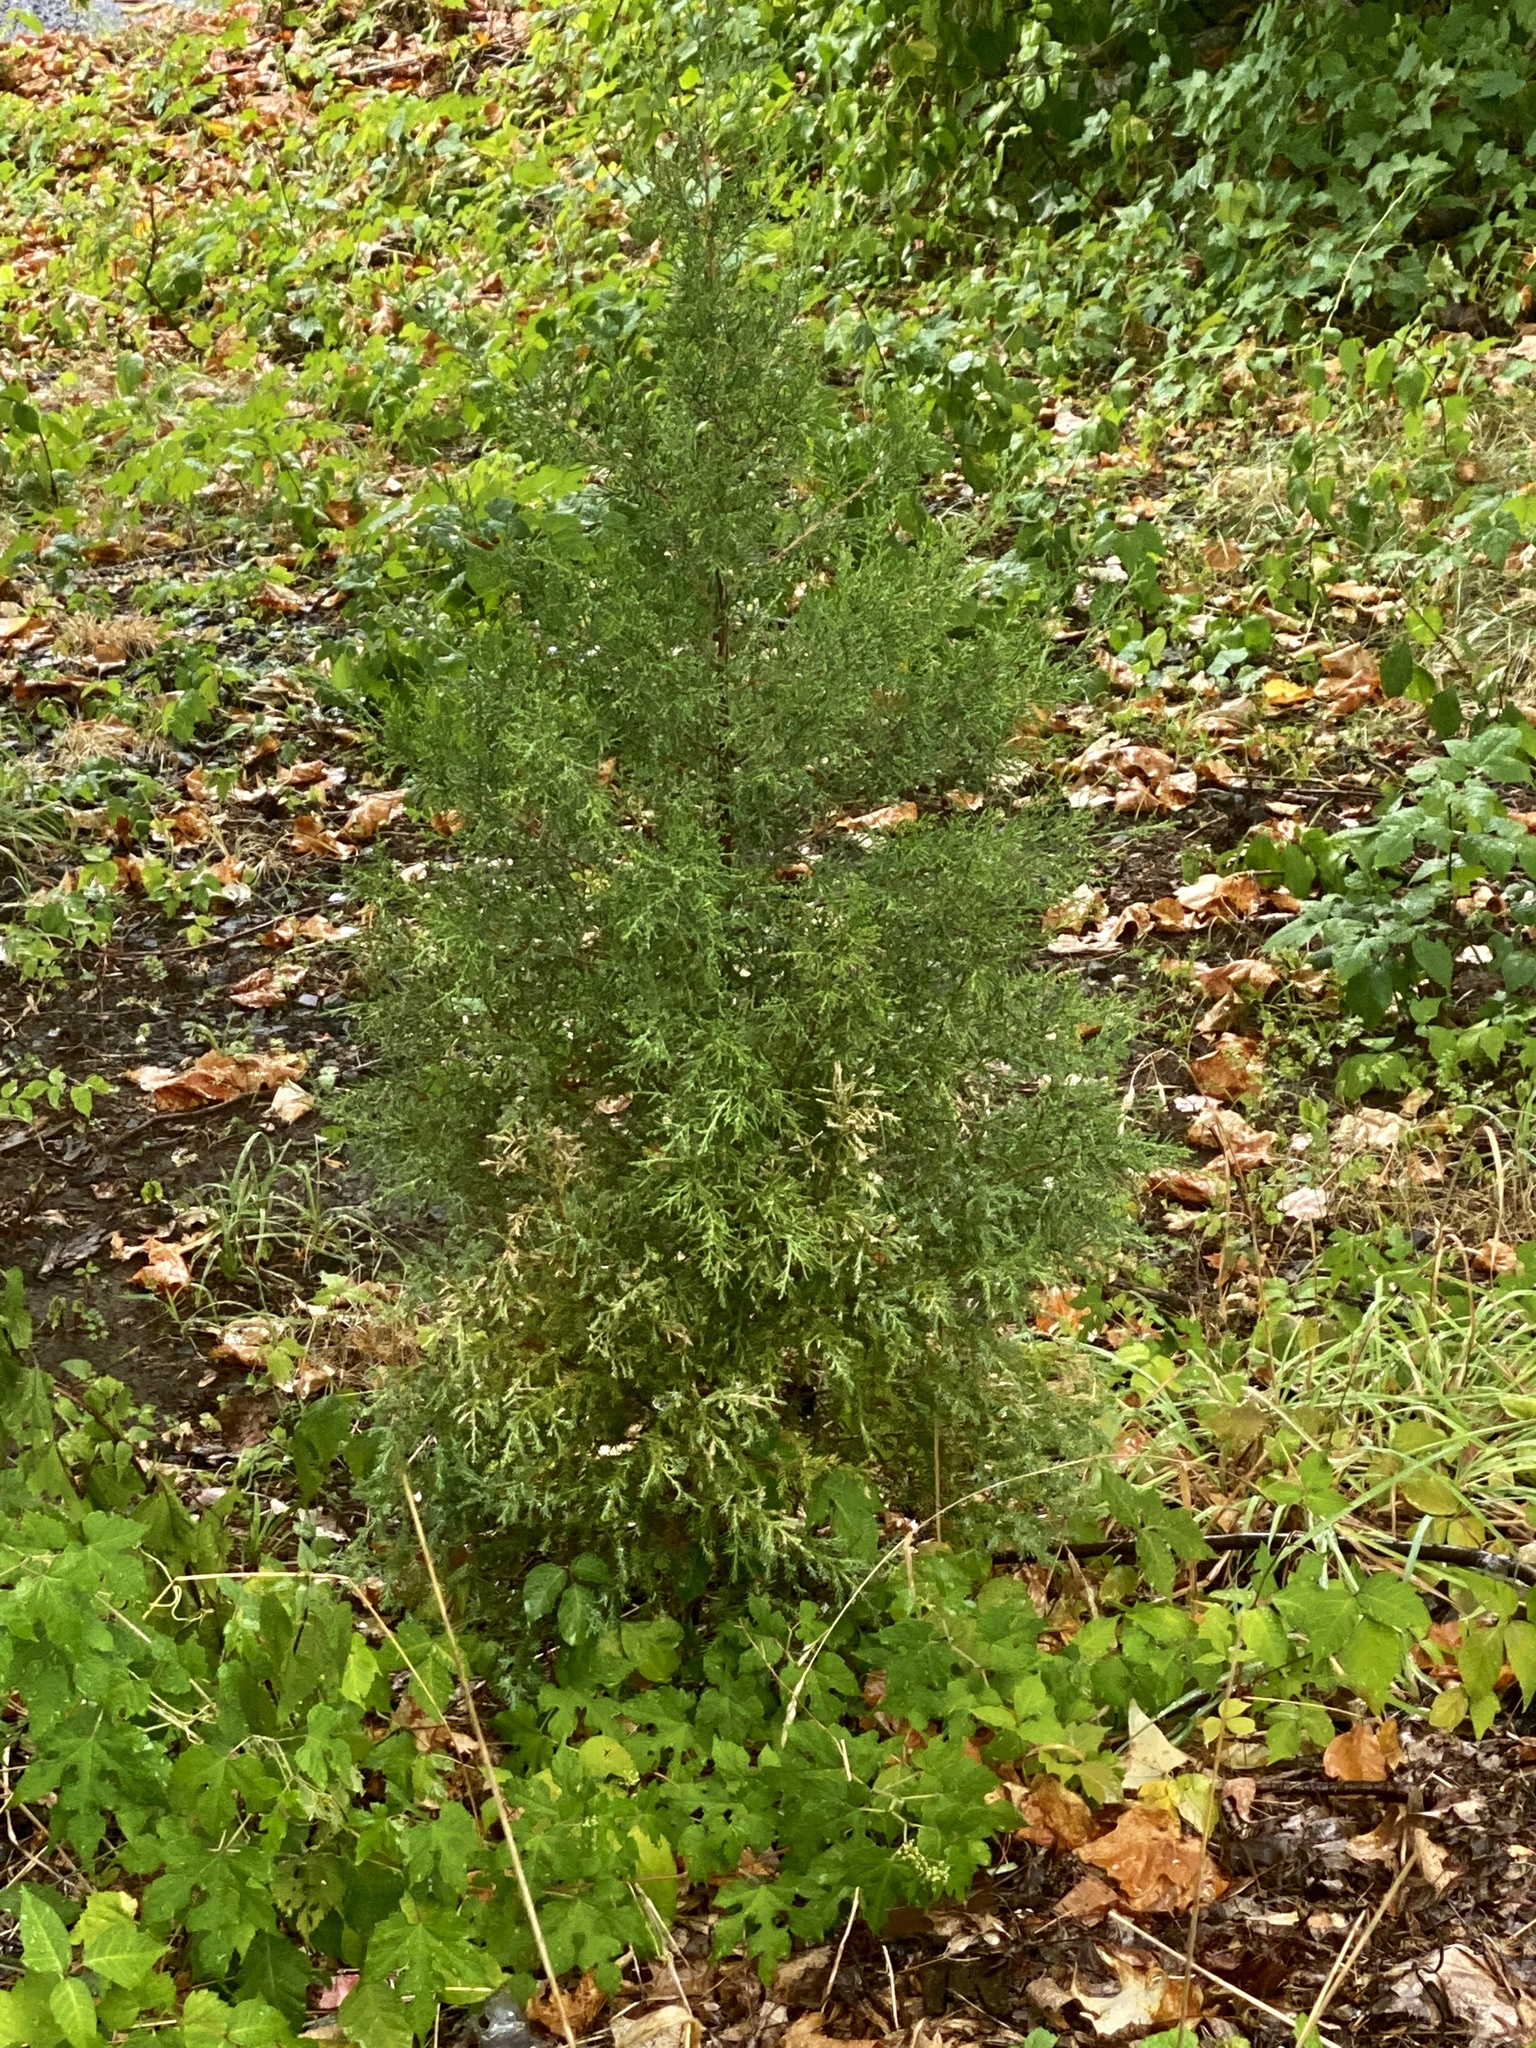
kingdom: Plantae
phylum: Tracheophyta
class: Pinopsida
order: Pinales
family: Cupressaceae
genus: Juniperus
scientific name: Juniperus virginiana
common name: Red juniper
